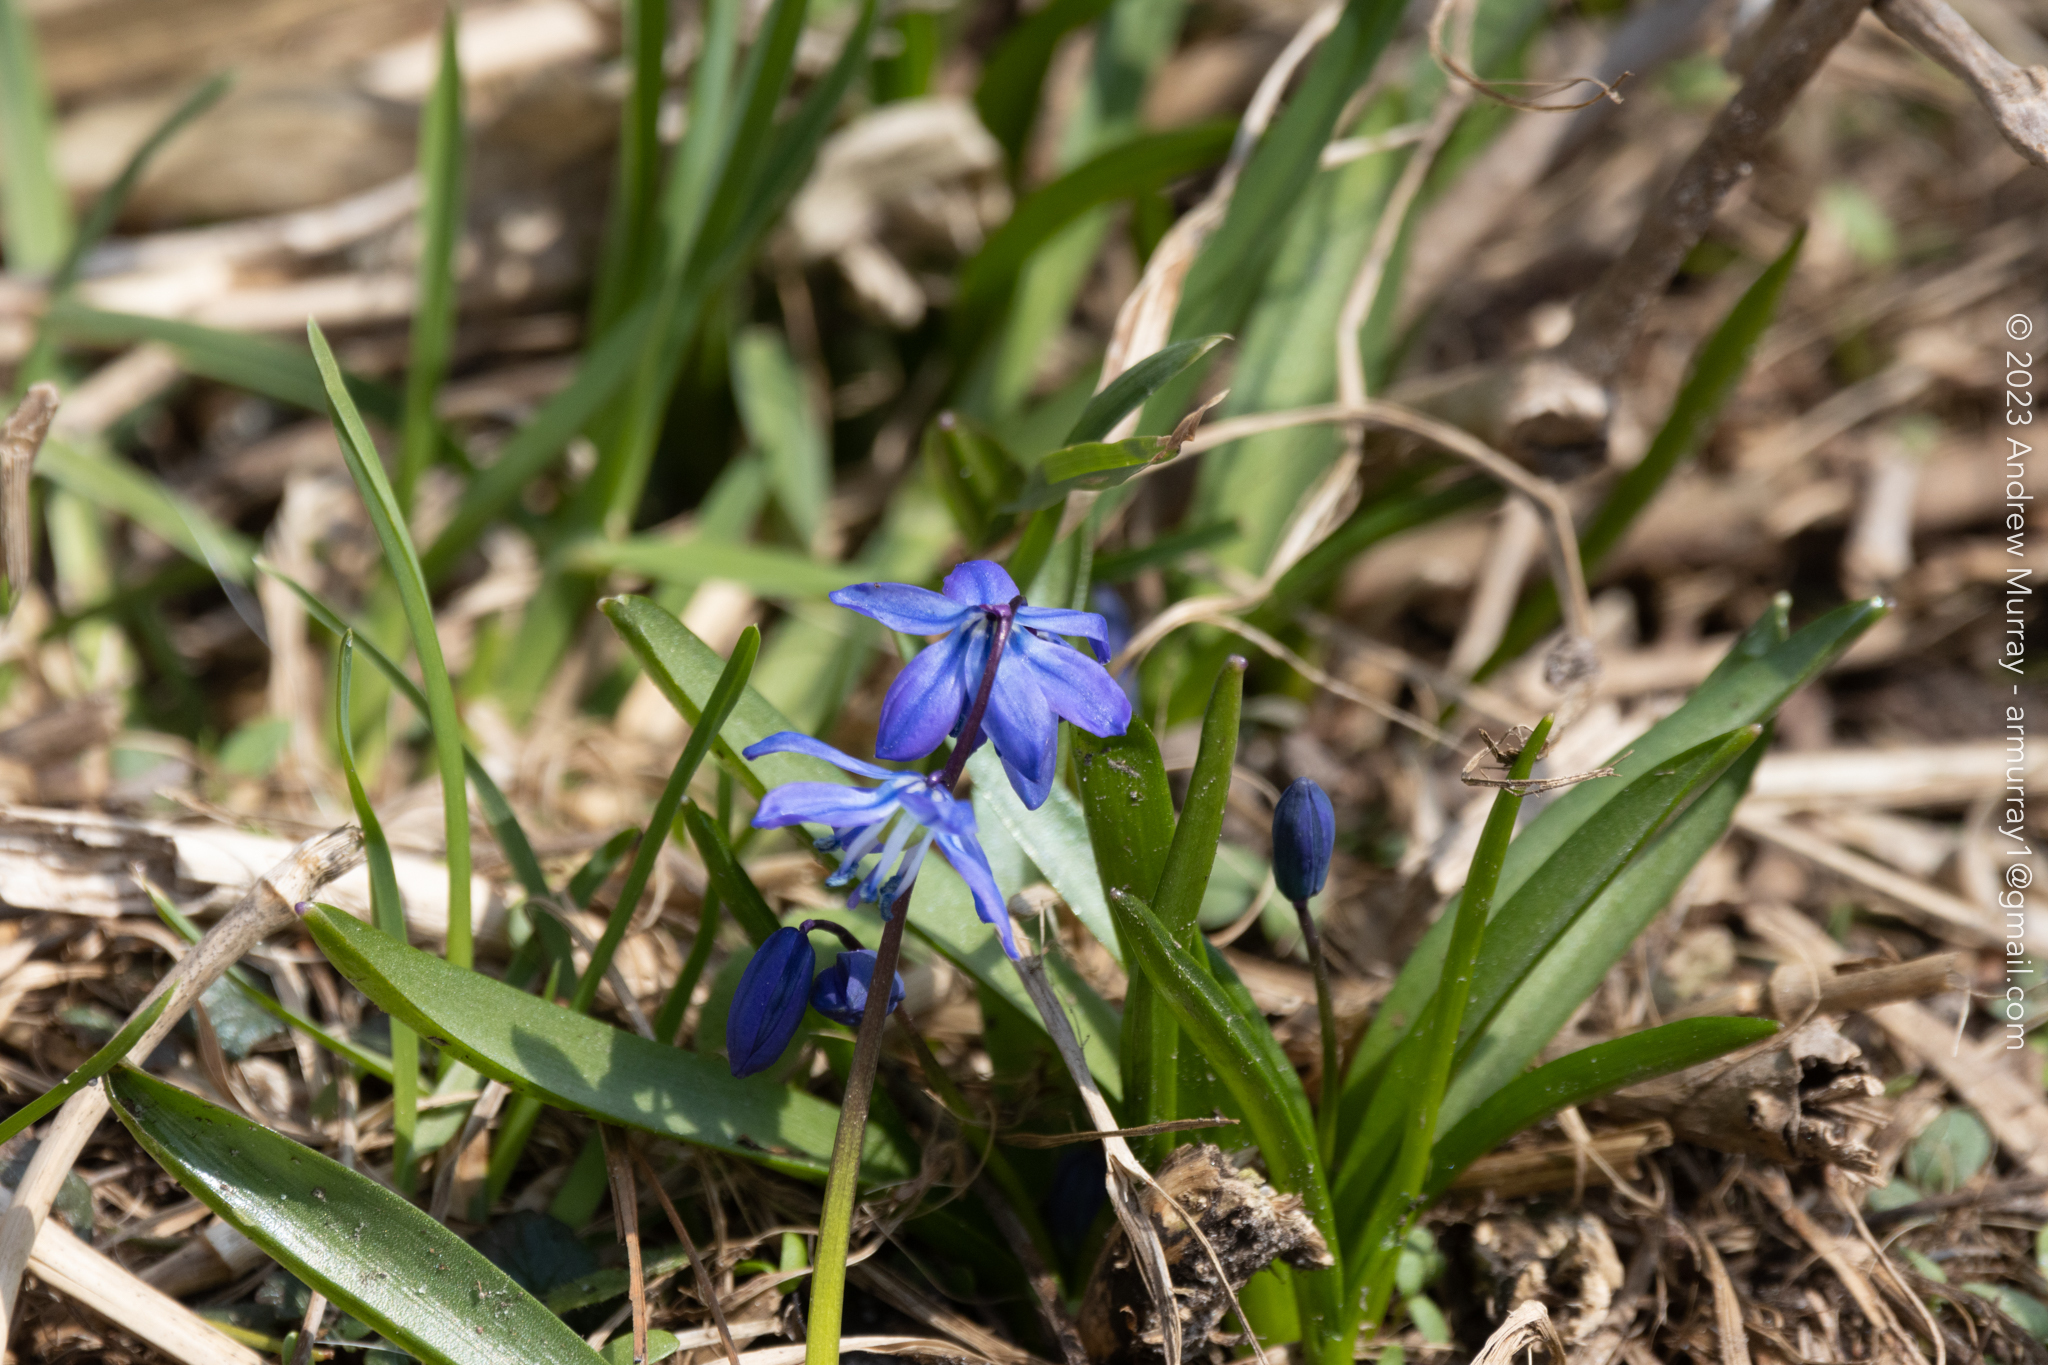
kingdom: Plantae
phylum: Tracheophyta
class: Liliopsida
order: Asparagales
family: Asparagaceae
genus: Scilla
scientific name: Scilla siberica
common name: Siberian squill
